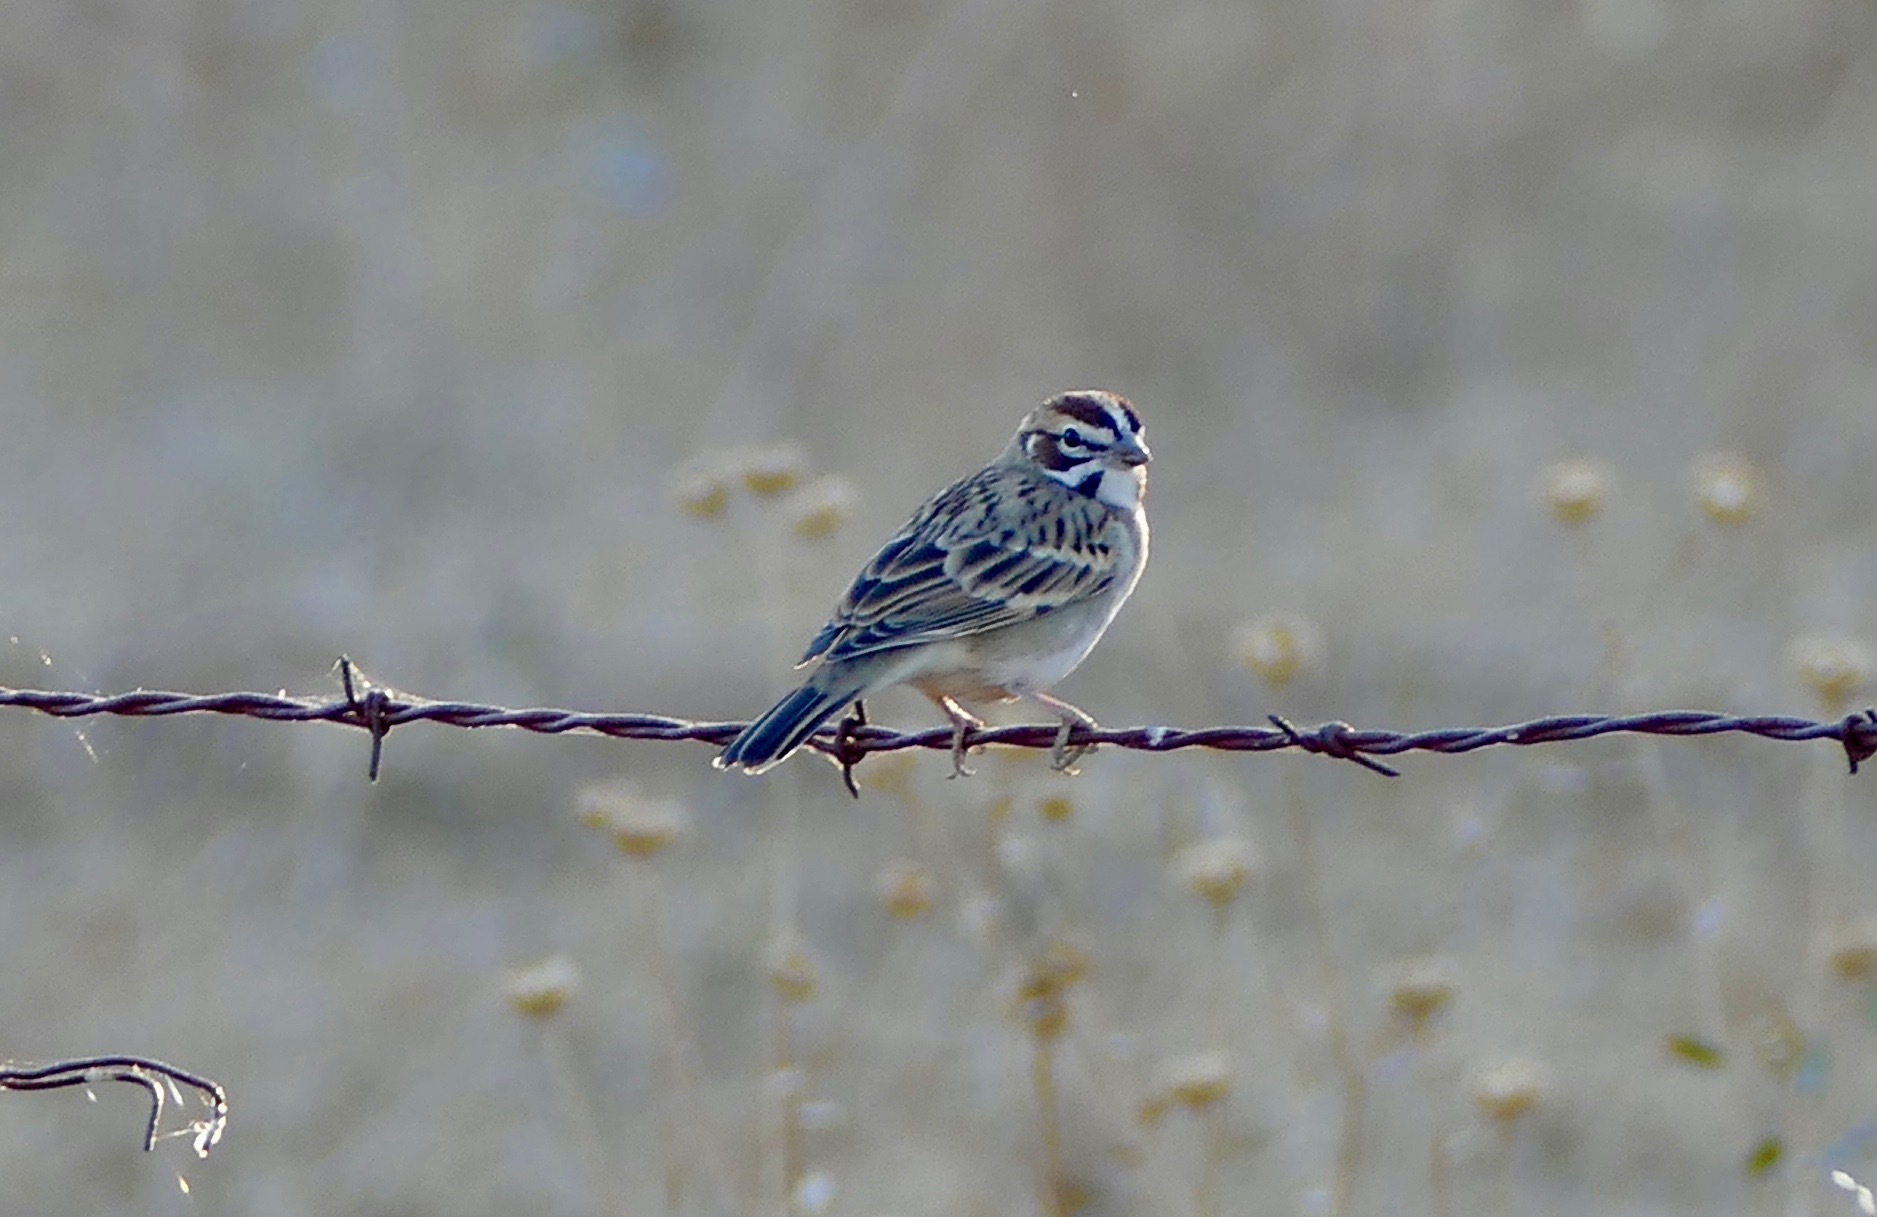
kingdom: Animalia
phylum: Chordata
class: Aves
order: Passeriformes
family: Passerellidae
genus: Chondestes
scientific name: Chondestes grammacus
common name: Lark sparrow
